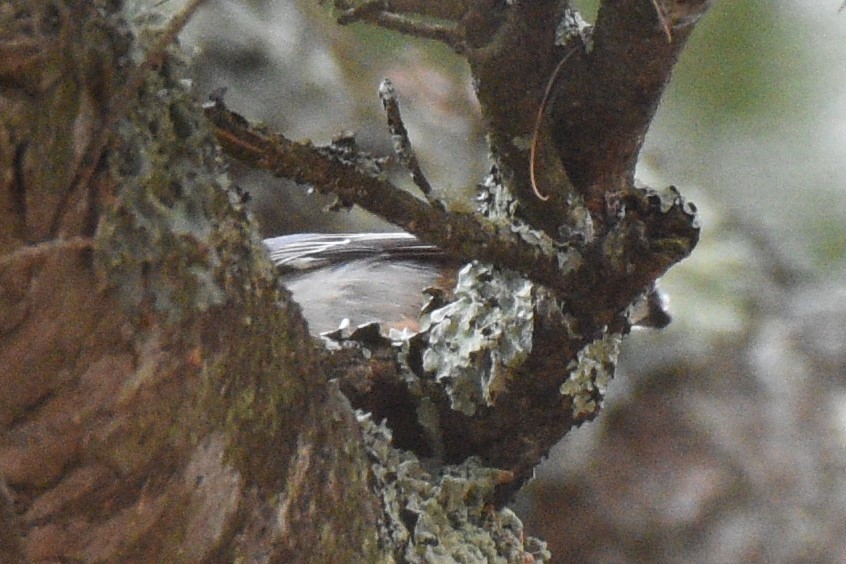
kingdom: Animalia
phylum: Chordata
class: Aves
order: Passeriformes
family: Sittidae
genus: Sitta
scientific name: Sitta carolinensis
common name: White-breasted nuthatch
